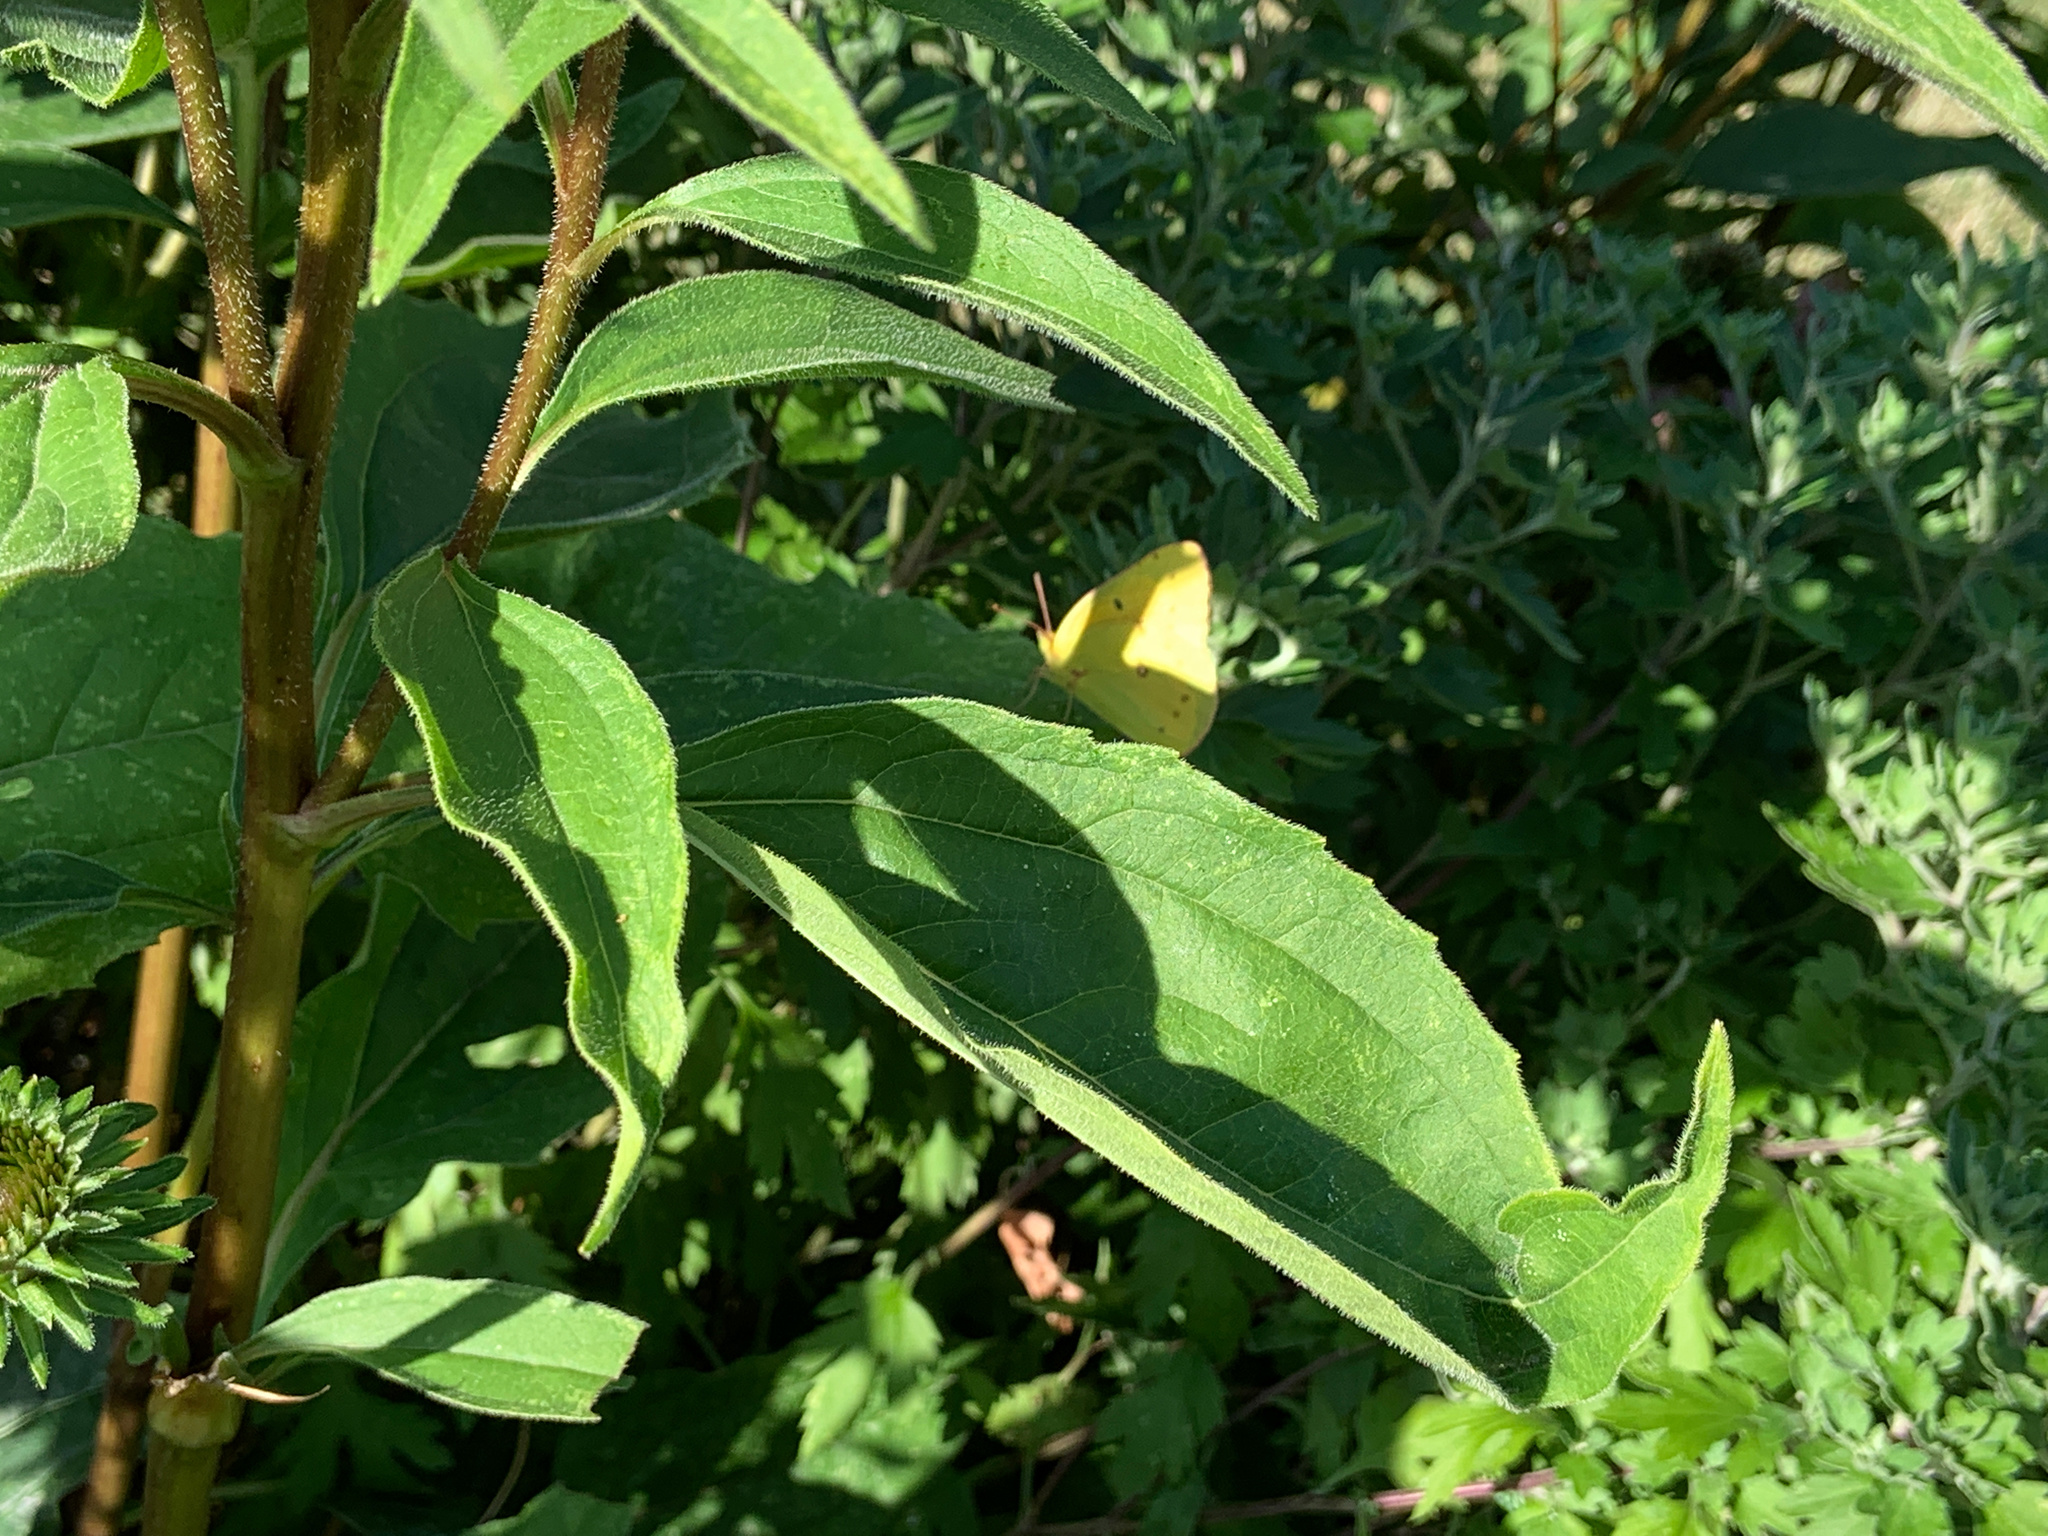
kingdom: Animalia
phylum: Arthropoda
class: Insecta
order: Lepidoptera
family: Pieridae
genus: Colias
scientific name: Colias eurytheme
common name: Alfalfa butterfly
